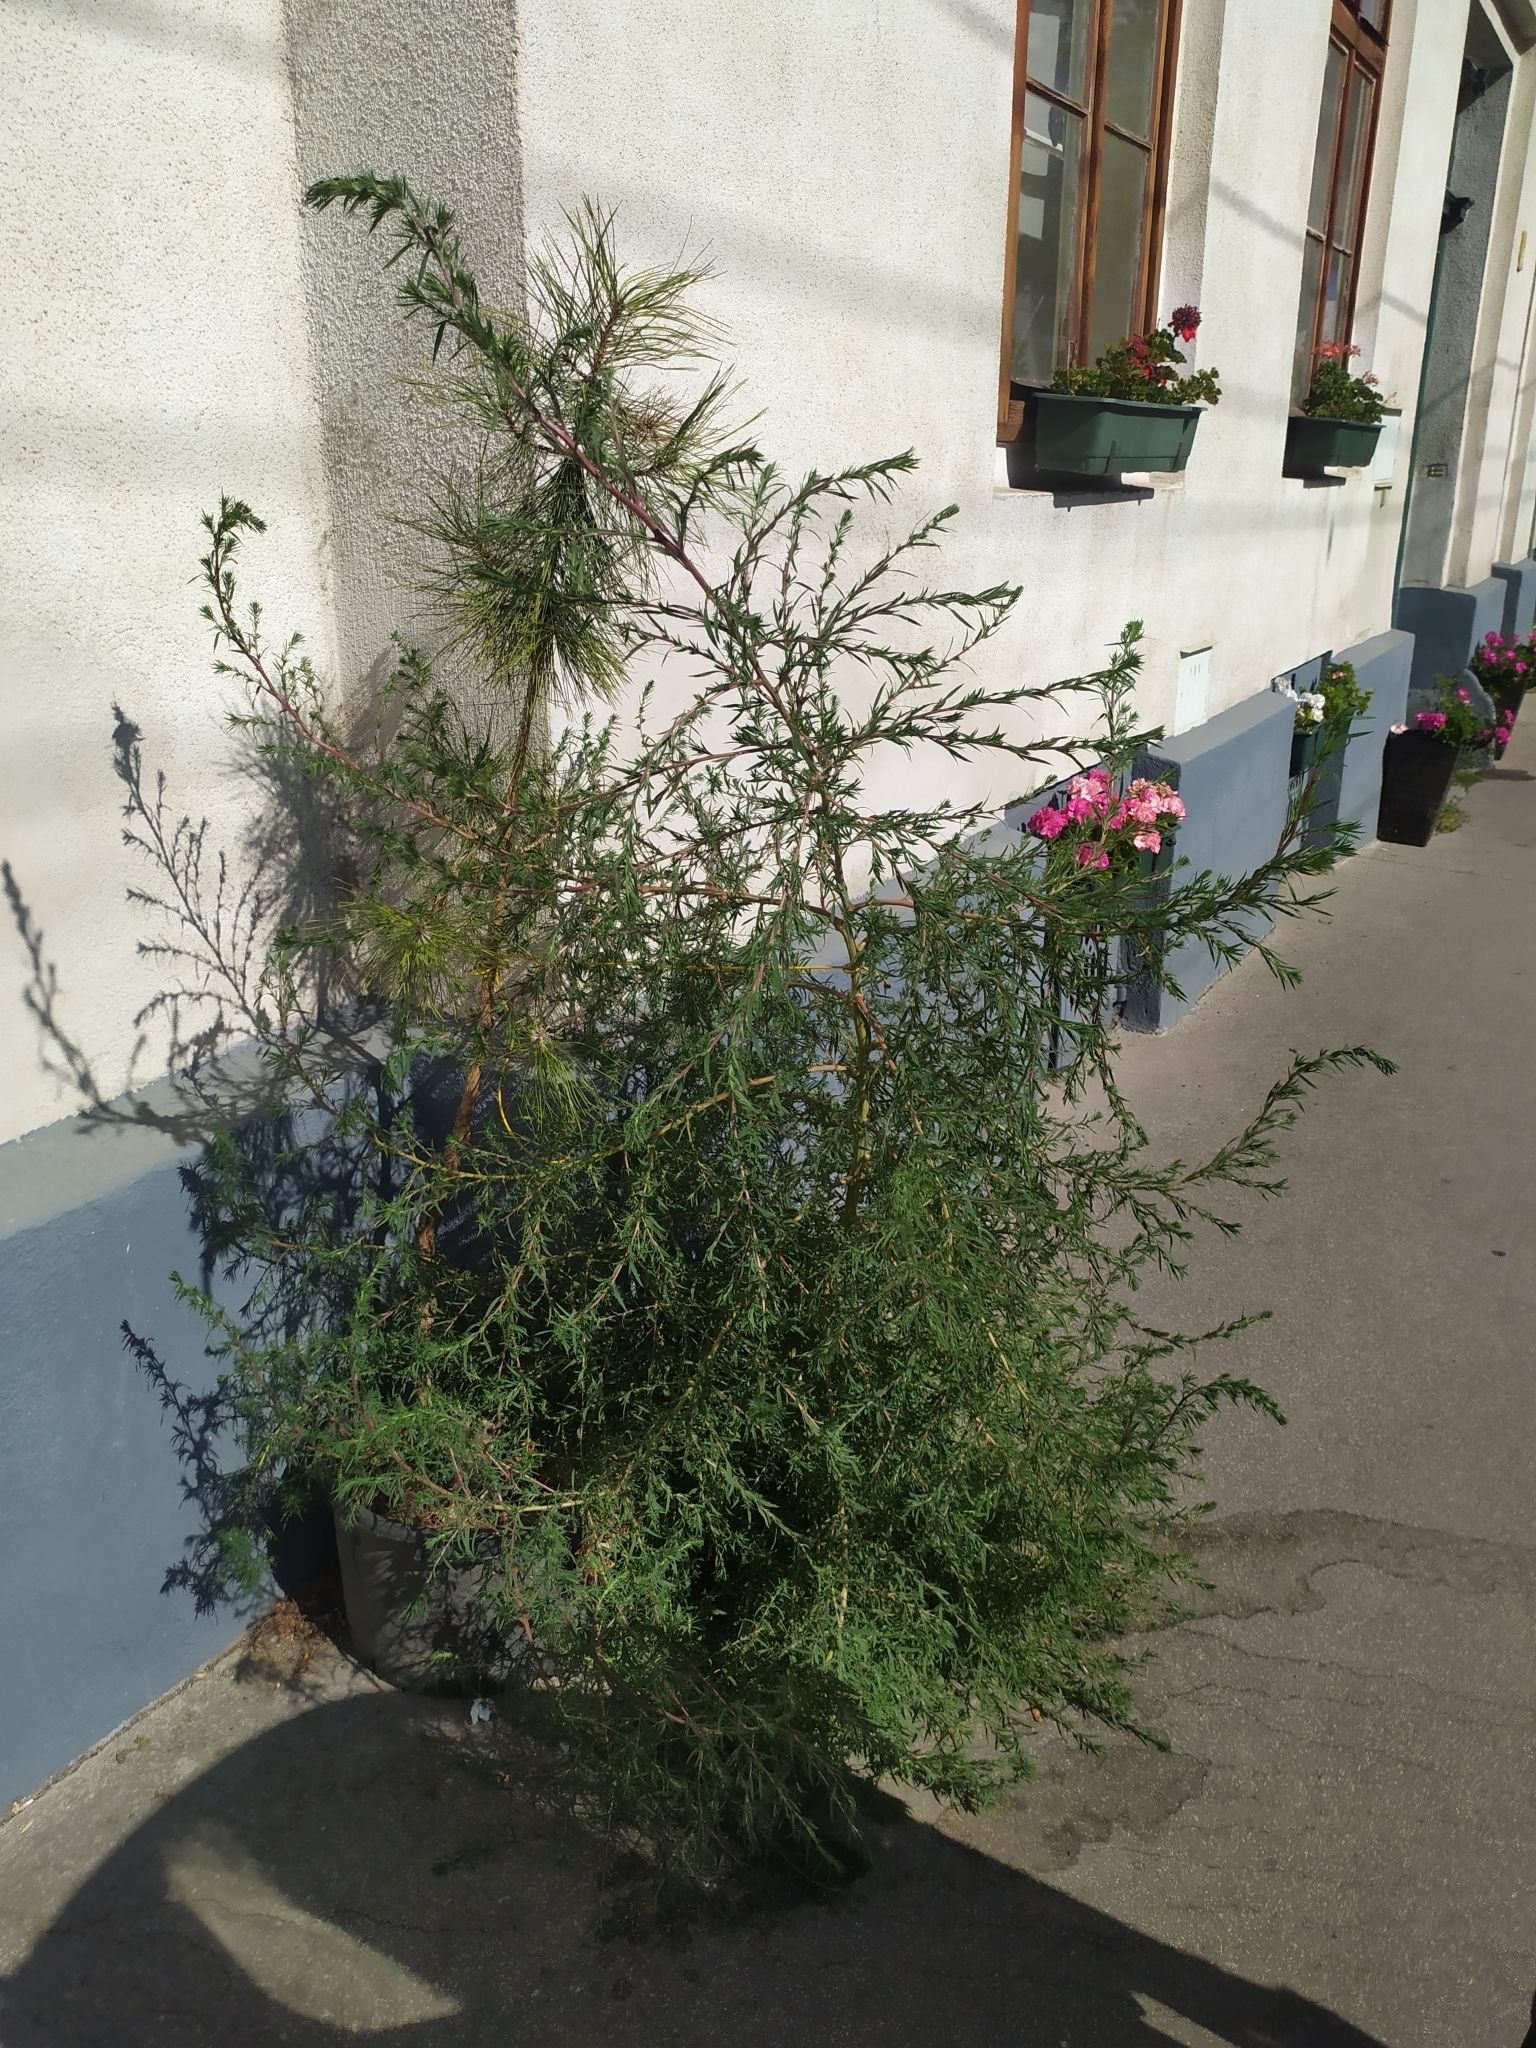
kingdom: Plantae
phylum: Tracheophyta
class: Magnoliopsida
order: Caryophyllales
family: Amaranthaceae
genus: Bassia
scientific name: Bassia scoparia
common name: Belvedere
